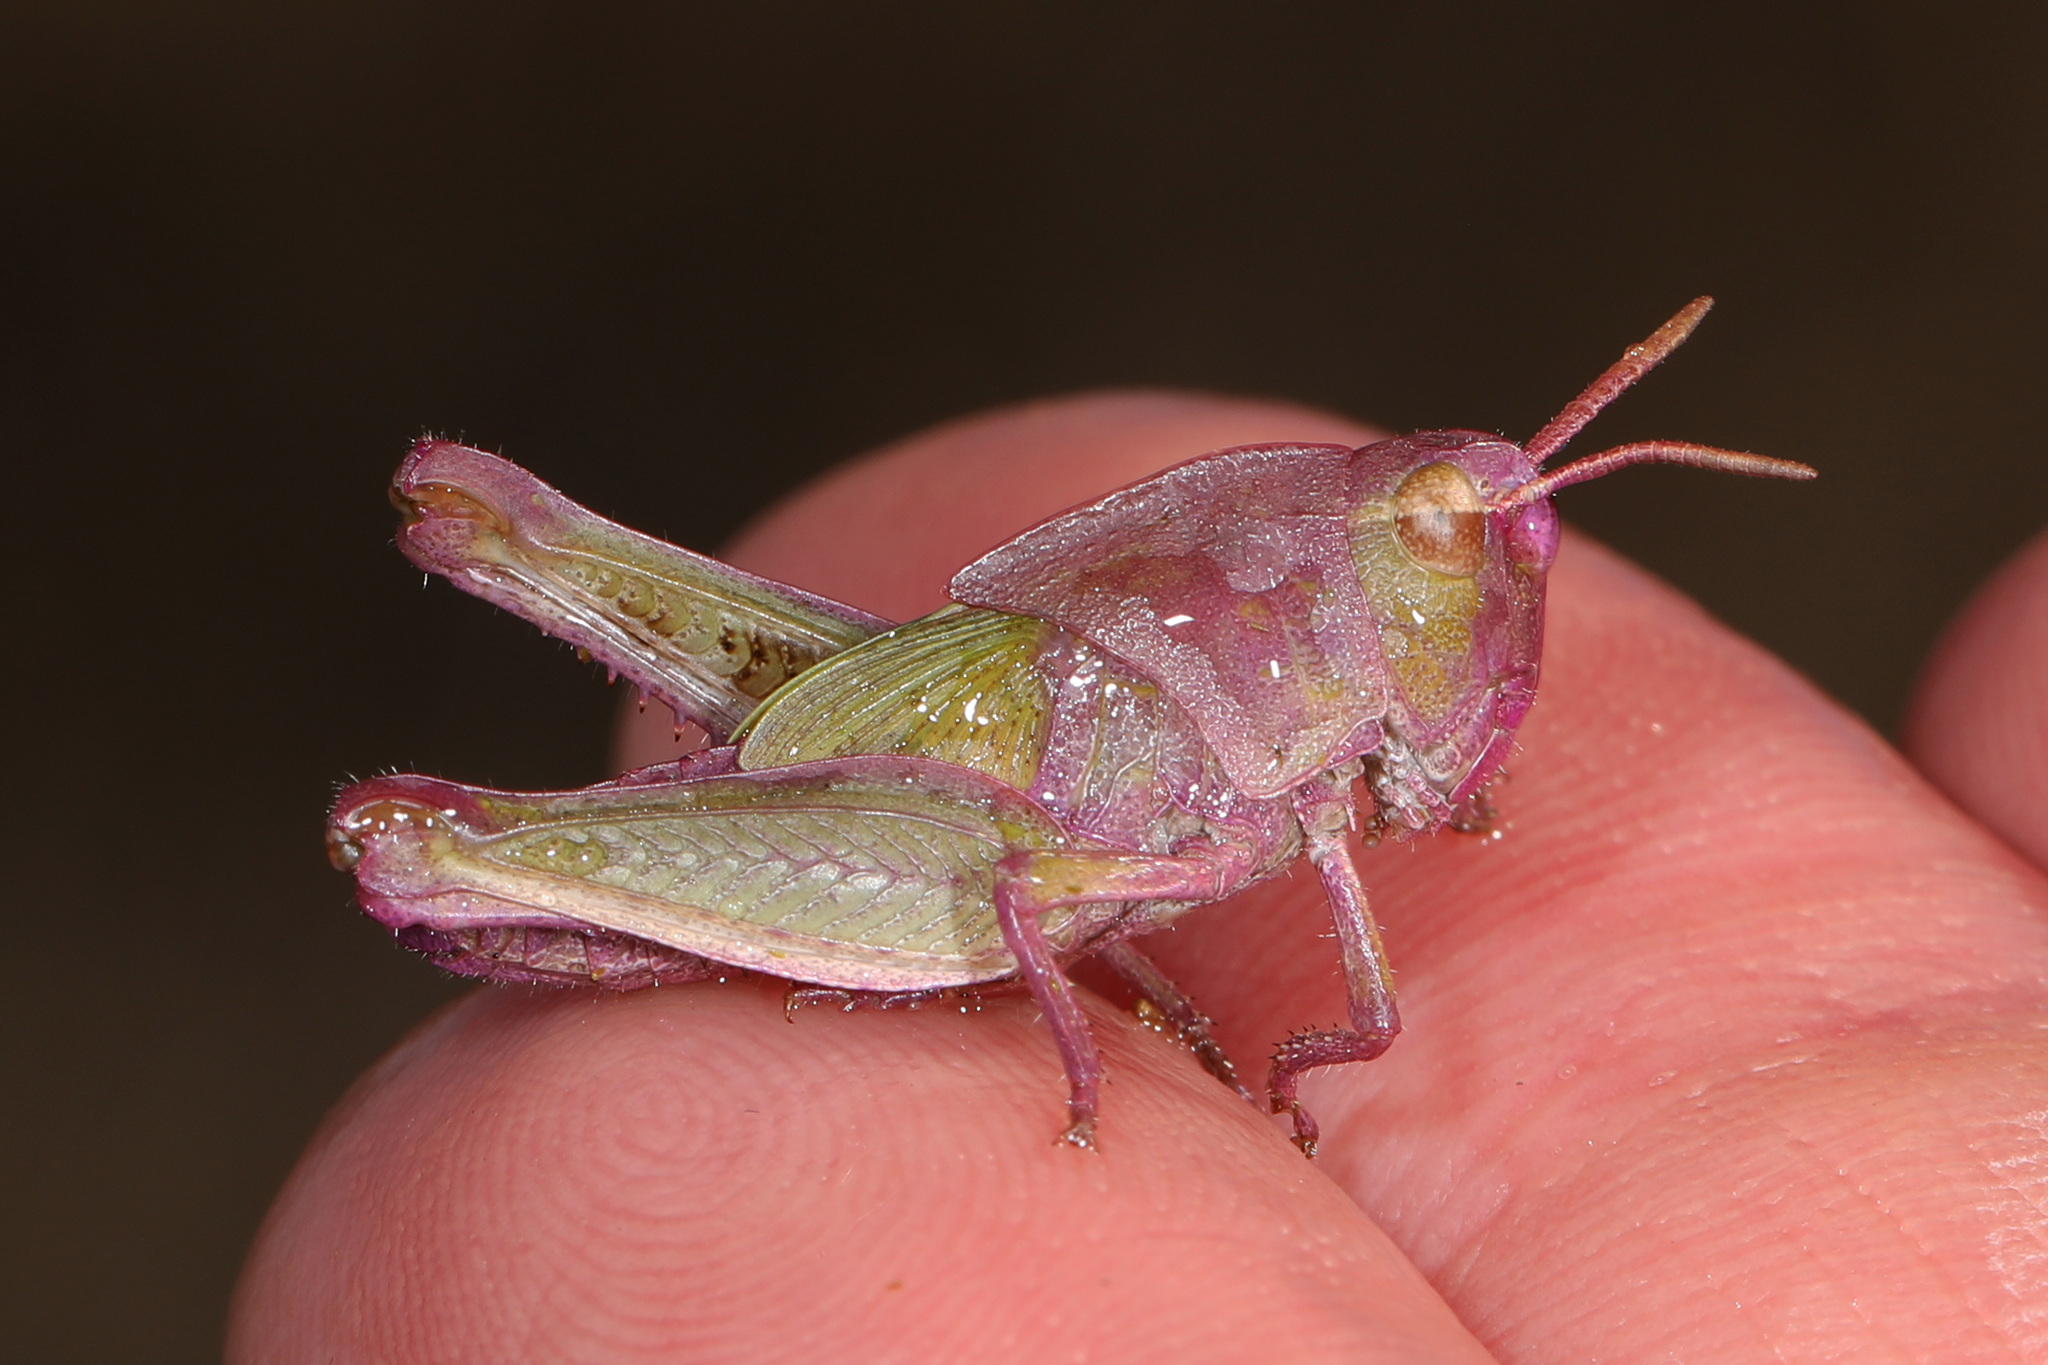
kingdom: Animalia
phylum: Arthropoda
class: Insecta
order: Orthoptera
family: Acrididae
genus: Chortophaga
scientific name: Chortophaga viridifasciata
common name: Green-striped grasshopper
